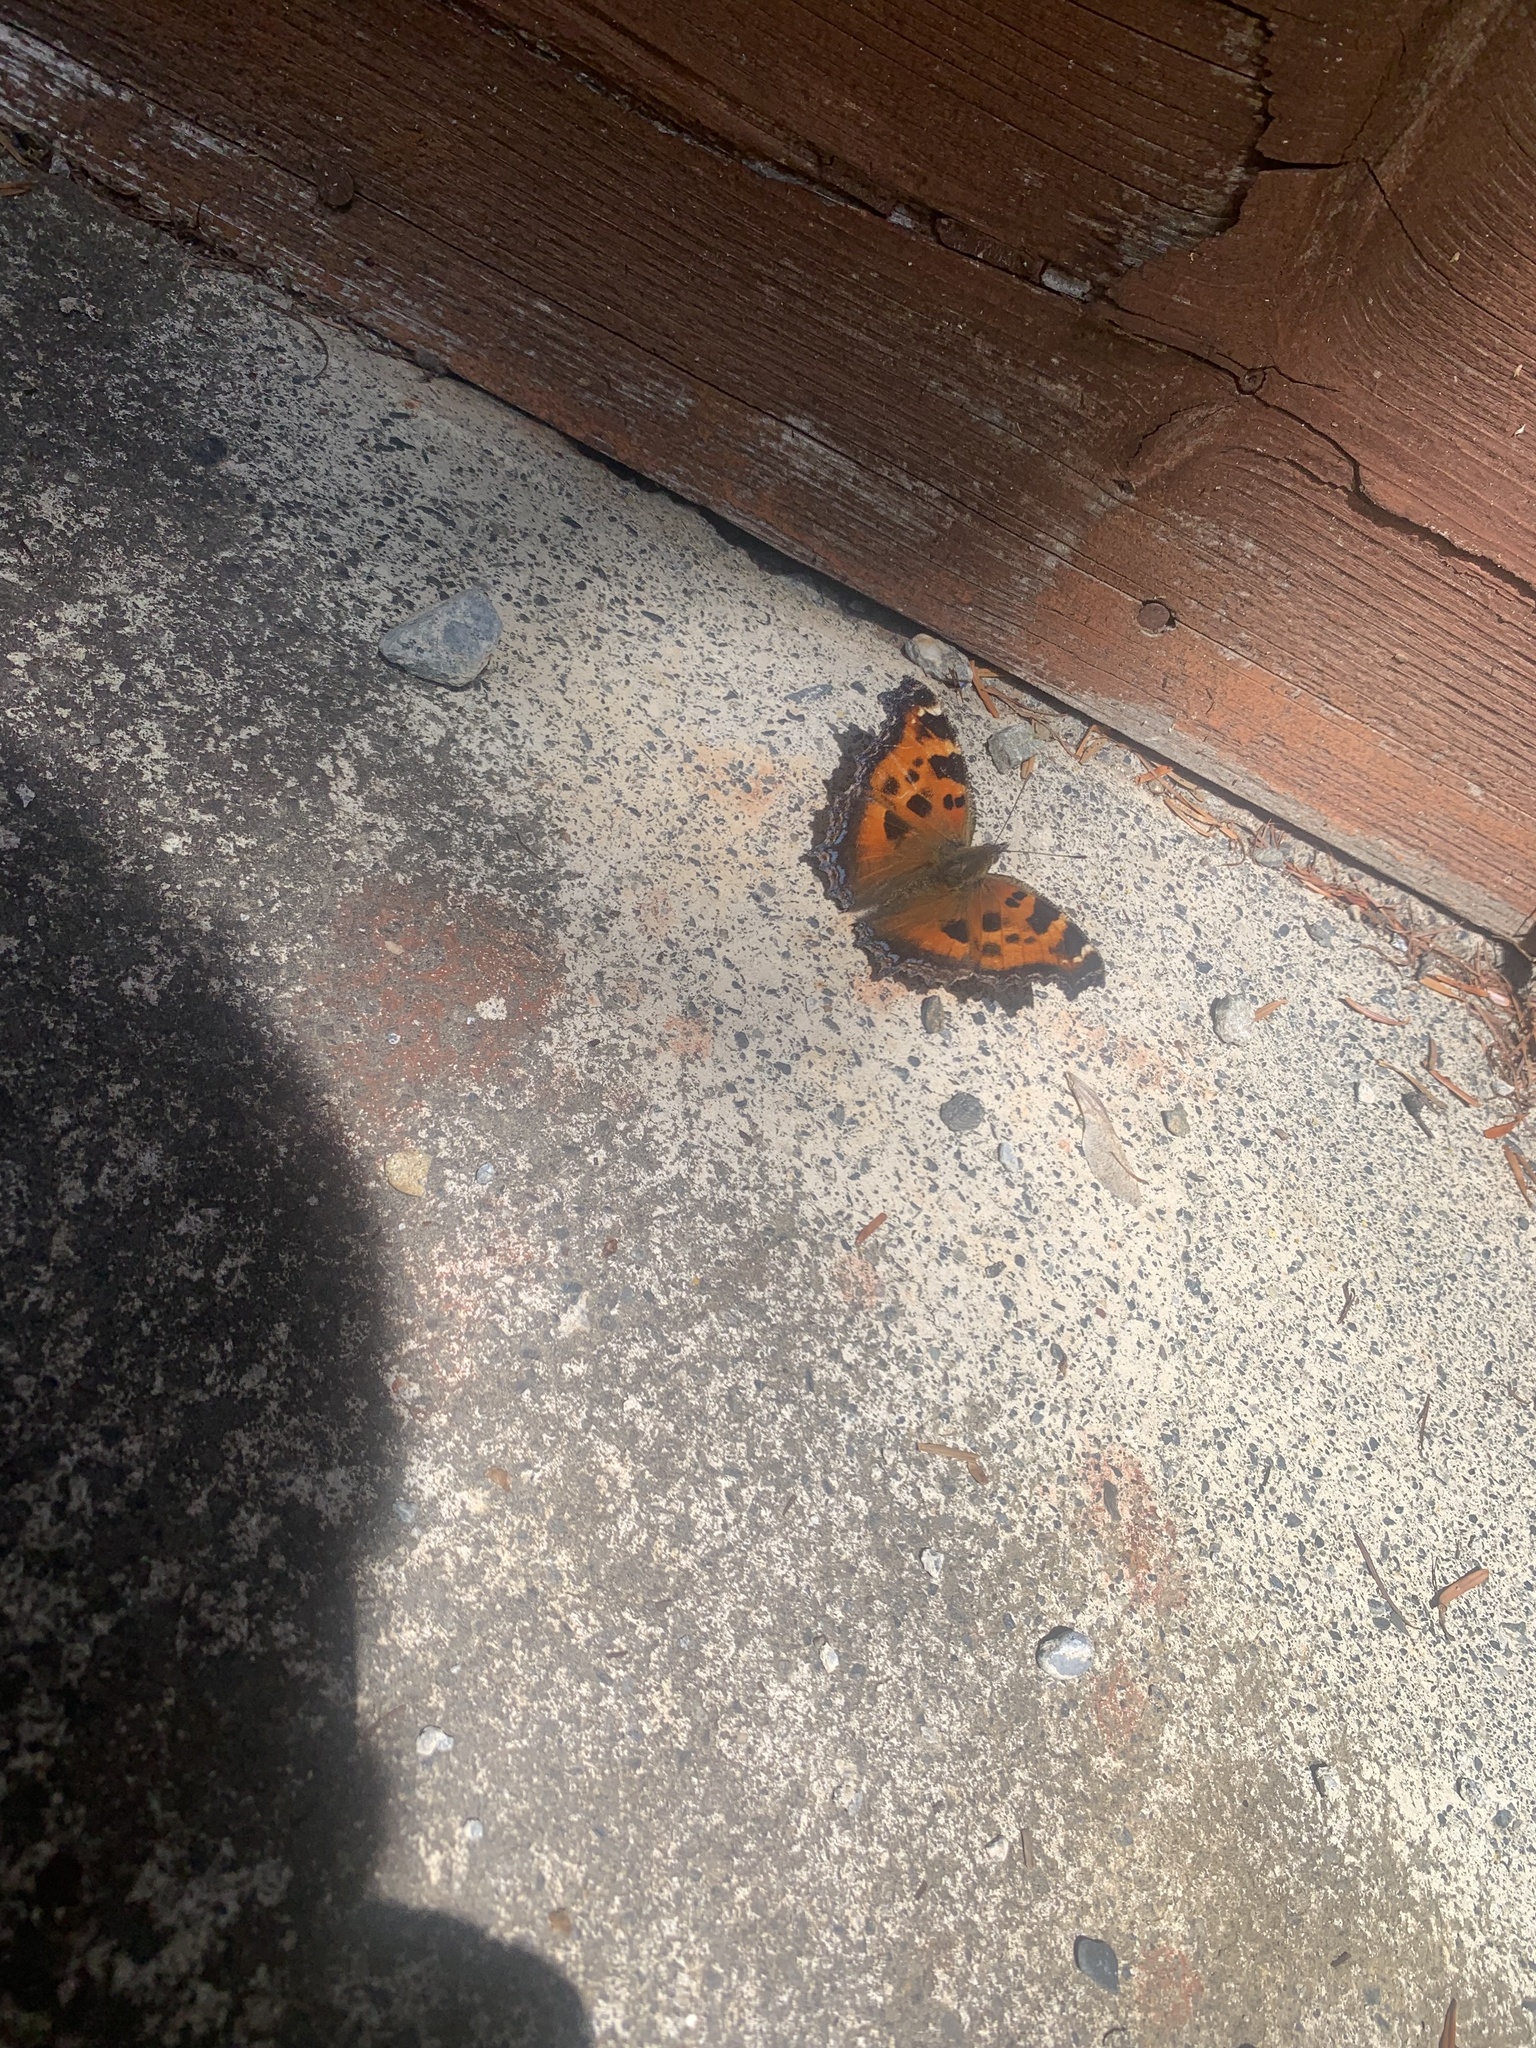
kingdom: Animalia
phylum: Arthropoda
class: Insecta
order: Lepidoptera
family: Nymphalidae
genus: Nymphalis
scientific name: Nymphalis xanthomelas
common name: Scarce tortoiseshell
